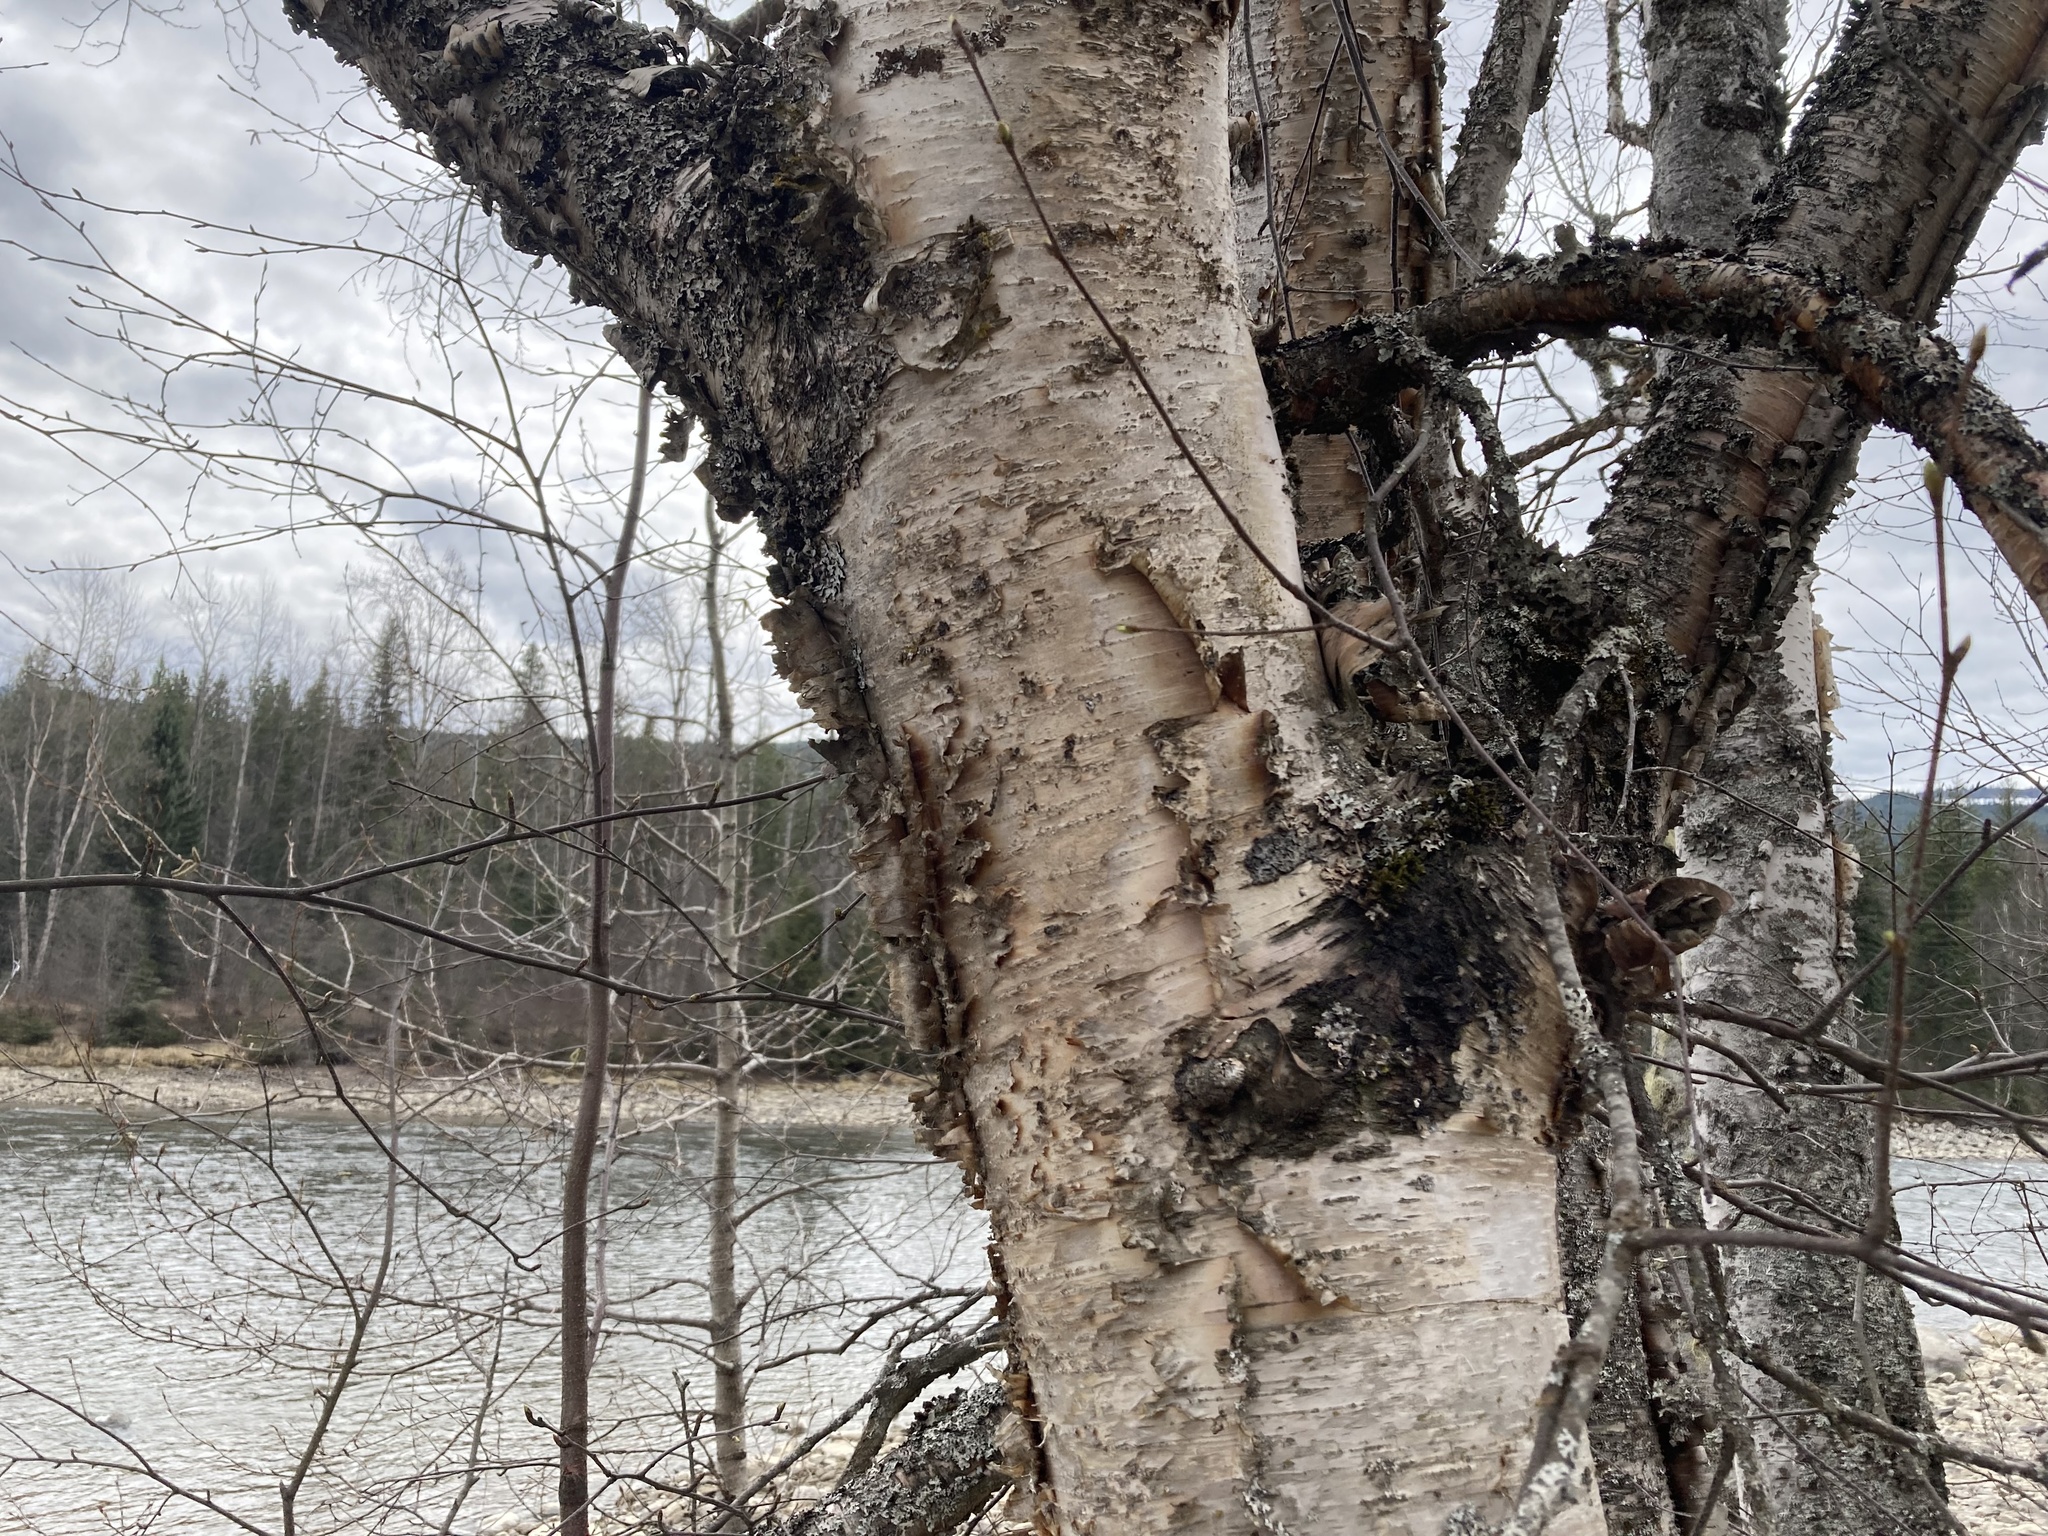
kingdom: Plantae
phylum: Tracheophyta
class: Magnoliopsida
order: Fagales
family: Betulaceae
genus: Betula
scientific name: Betula papyrifera
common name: Paper birch
